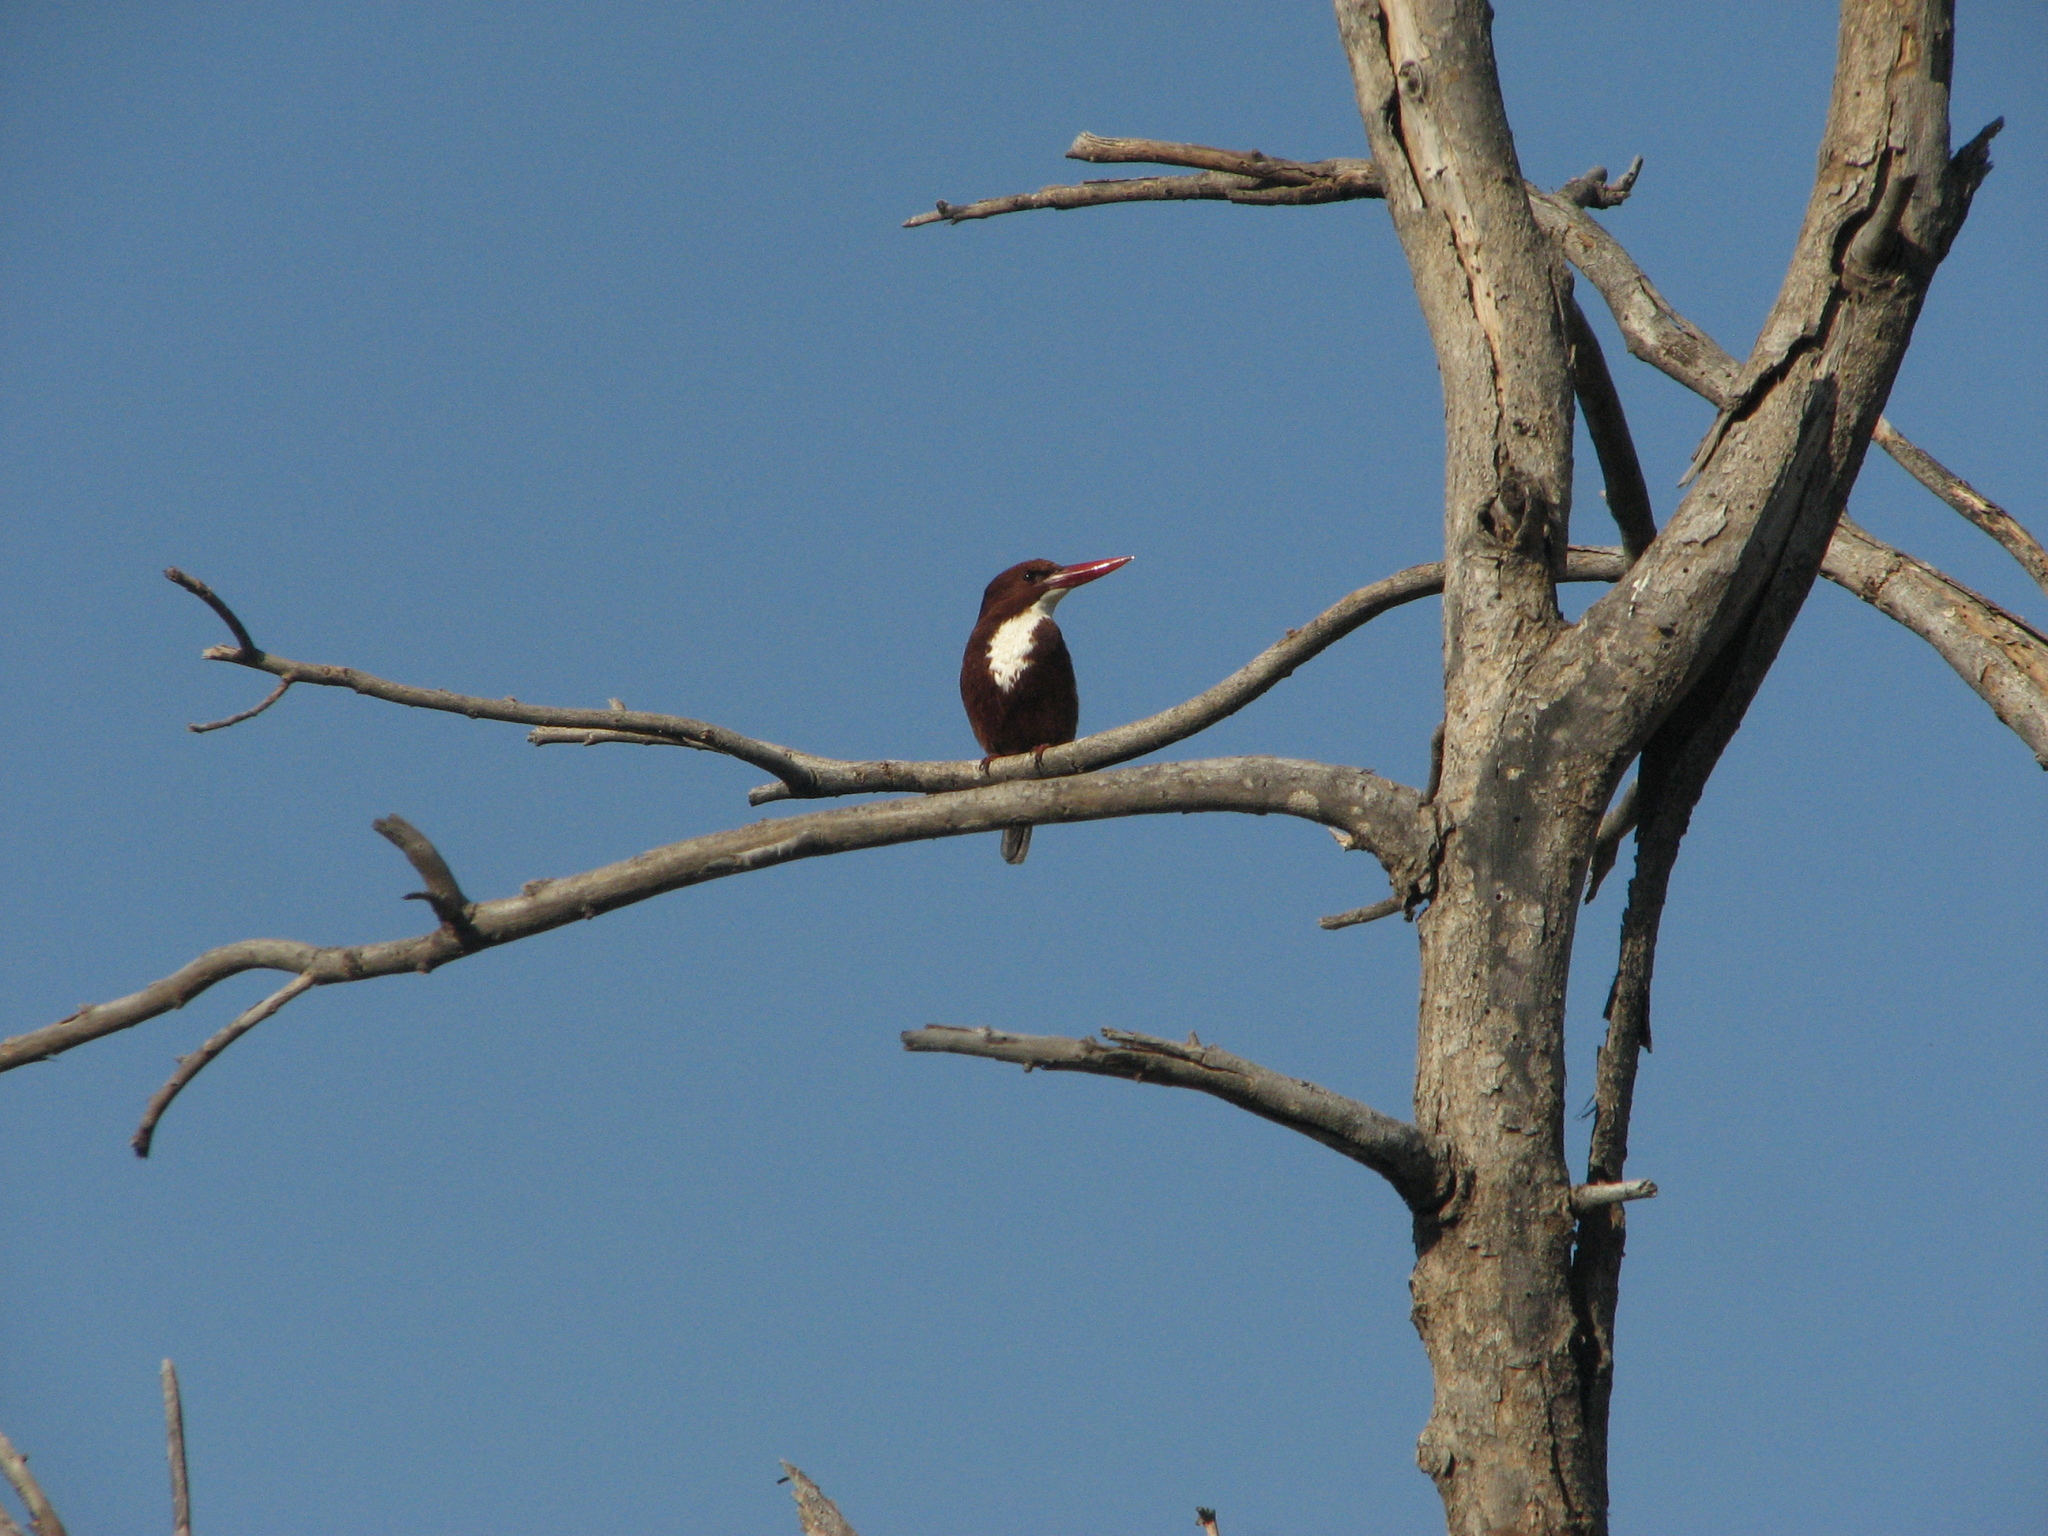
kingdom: Animalia
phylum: Chordata
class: Aves
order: Coraciiformes
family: Alcedinidae
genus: Halcyon
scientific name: Halcyon smyrnensis
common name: White-throated kingfisher
